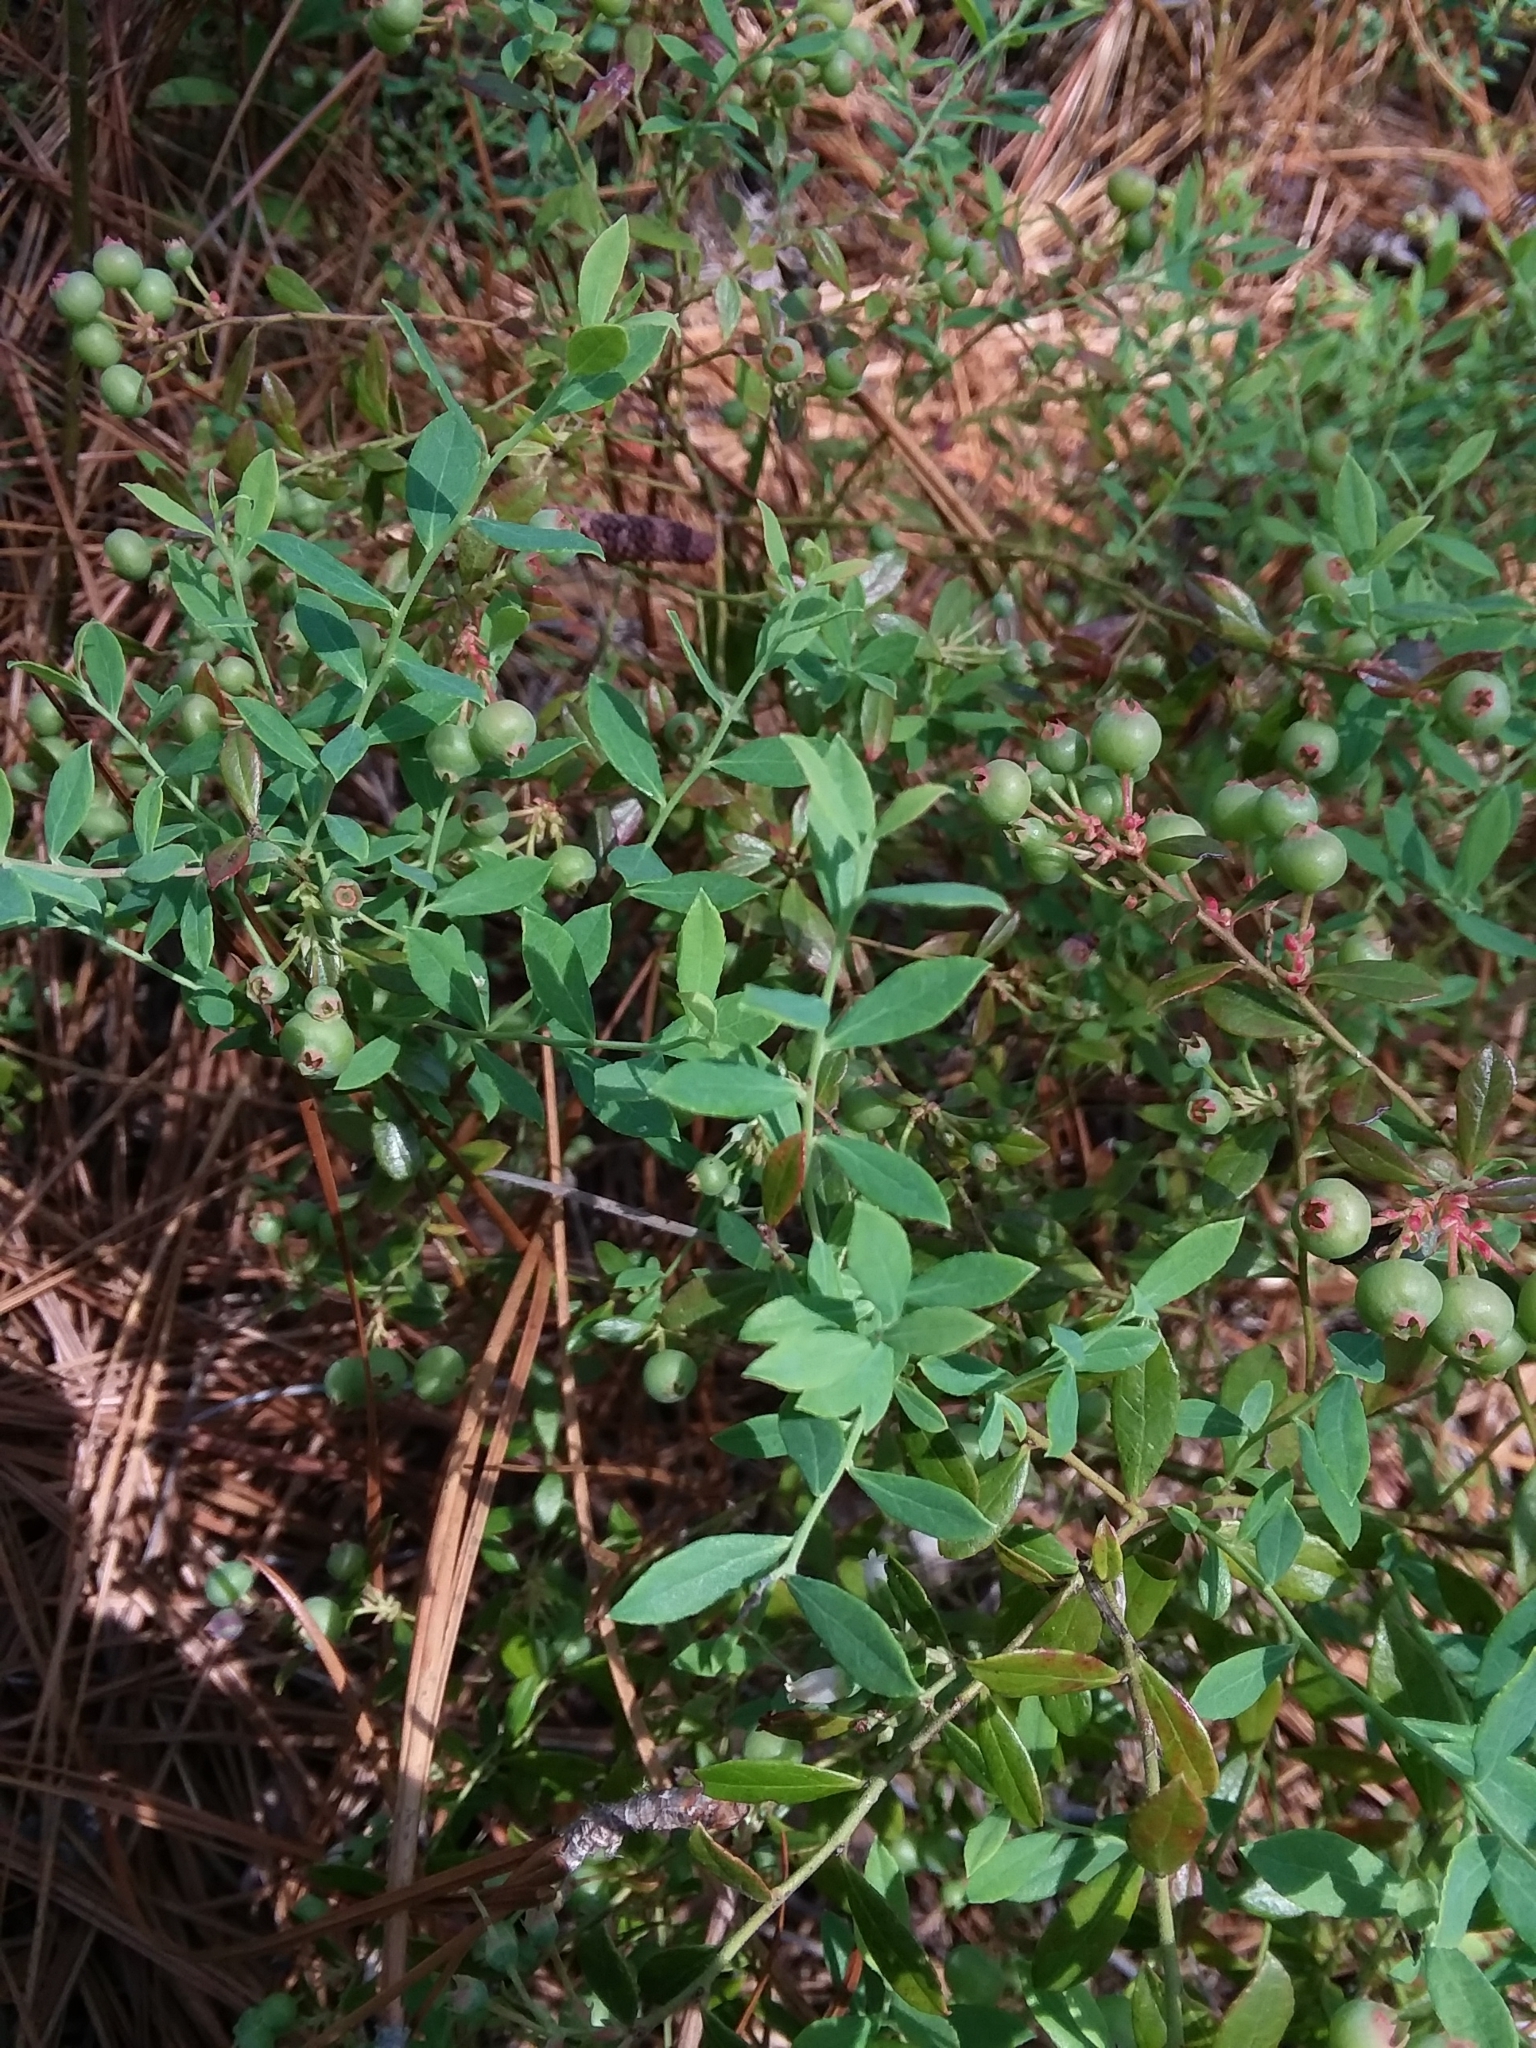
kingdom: Plantae
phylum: Tracheophyta
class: Magnoliopsida
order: Ericales
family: Ericaceae
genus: Vaccinium
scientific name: Vaccinium darrowii
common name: Darrow's blueberry
